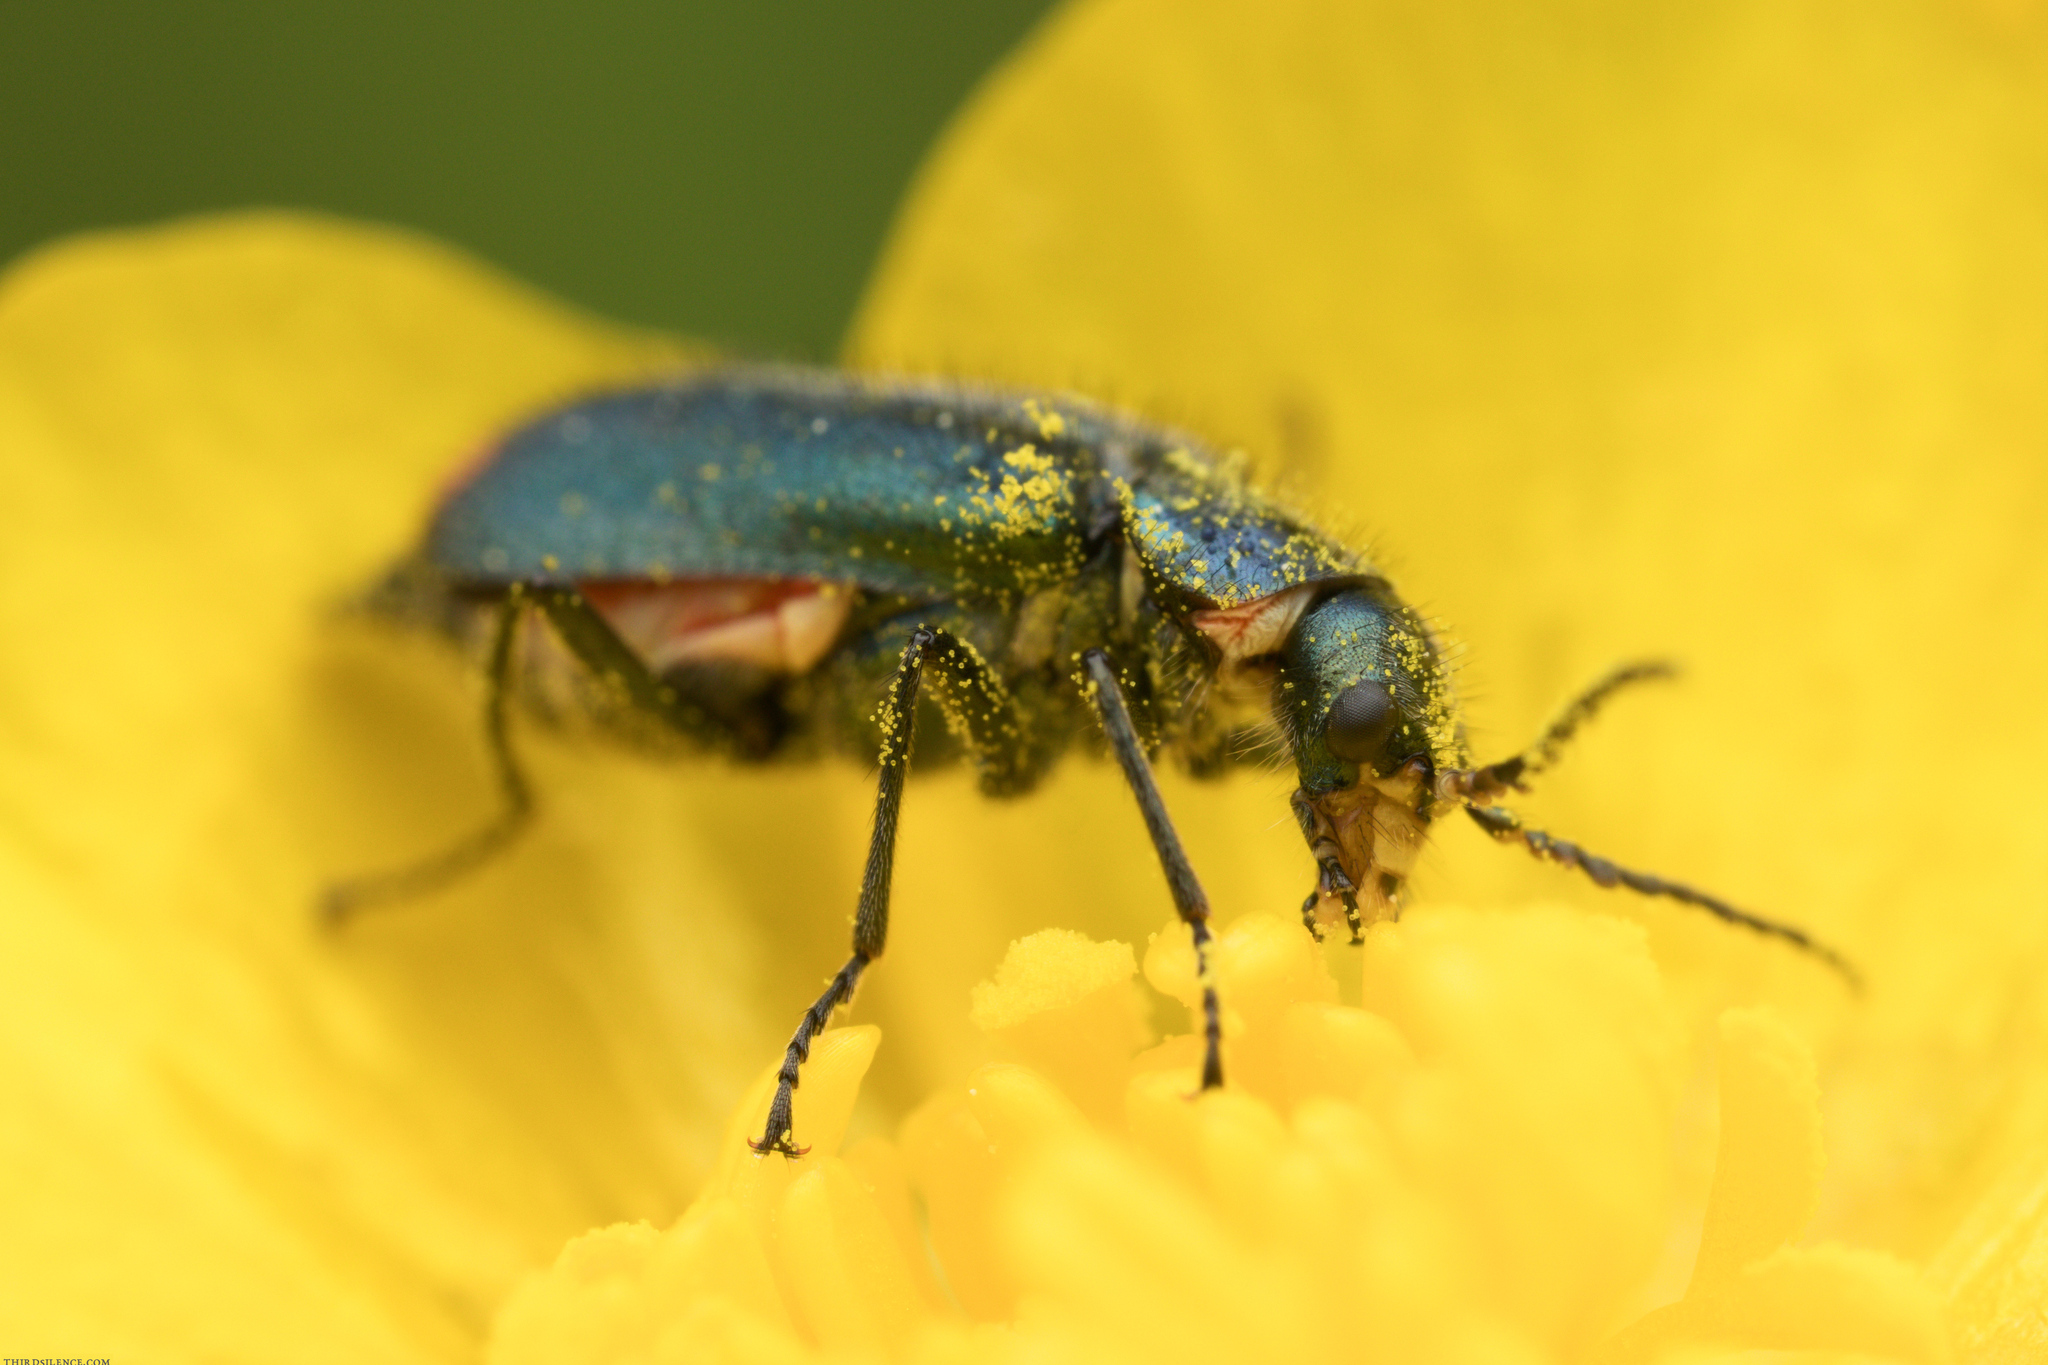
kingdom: Animalia
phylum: Arthropoda
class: Insecta
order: Coleoptera
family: Melyridae
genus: Malachius
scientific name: Malachius bipustulatus
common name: Malachite beetle
